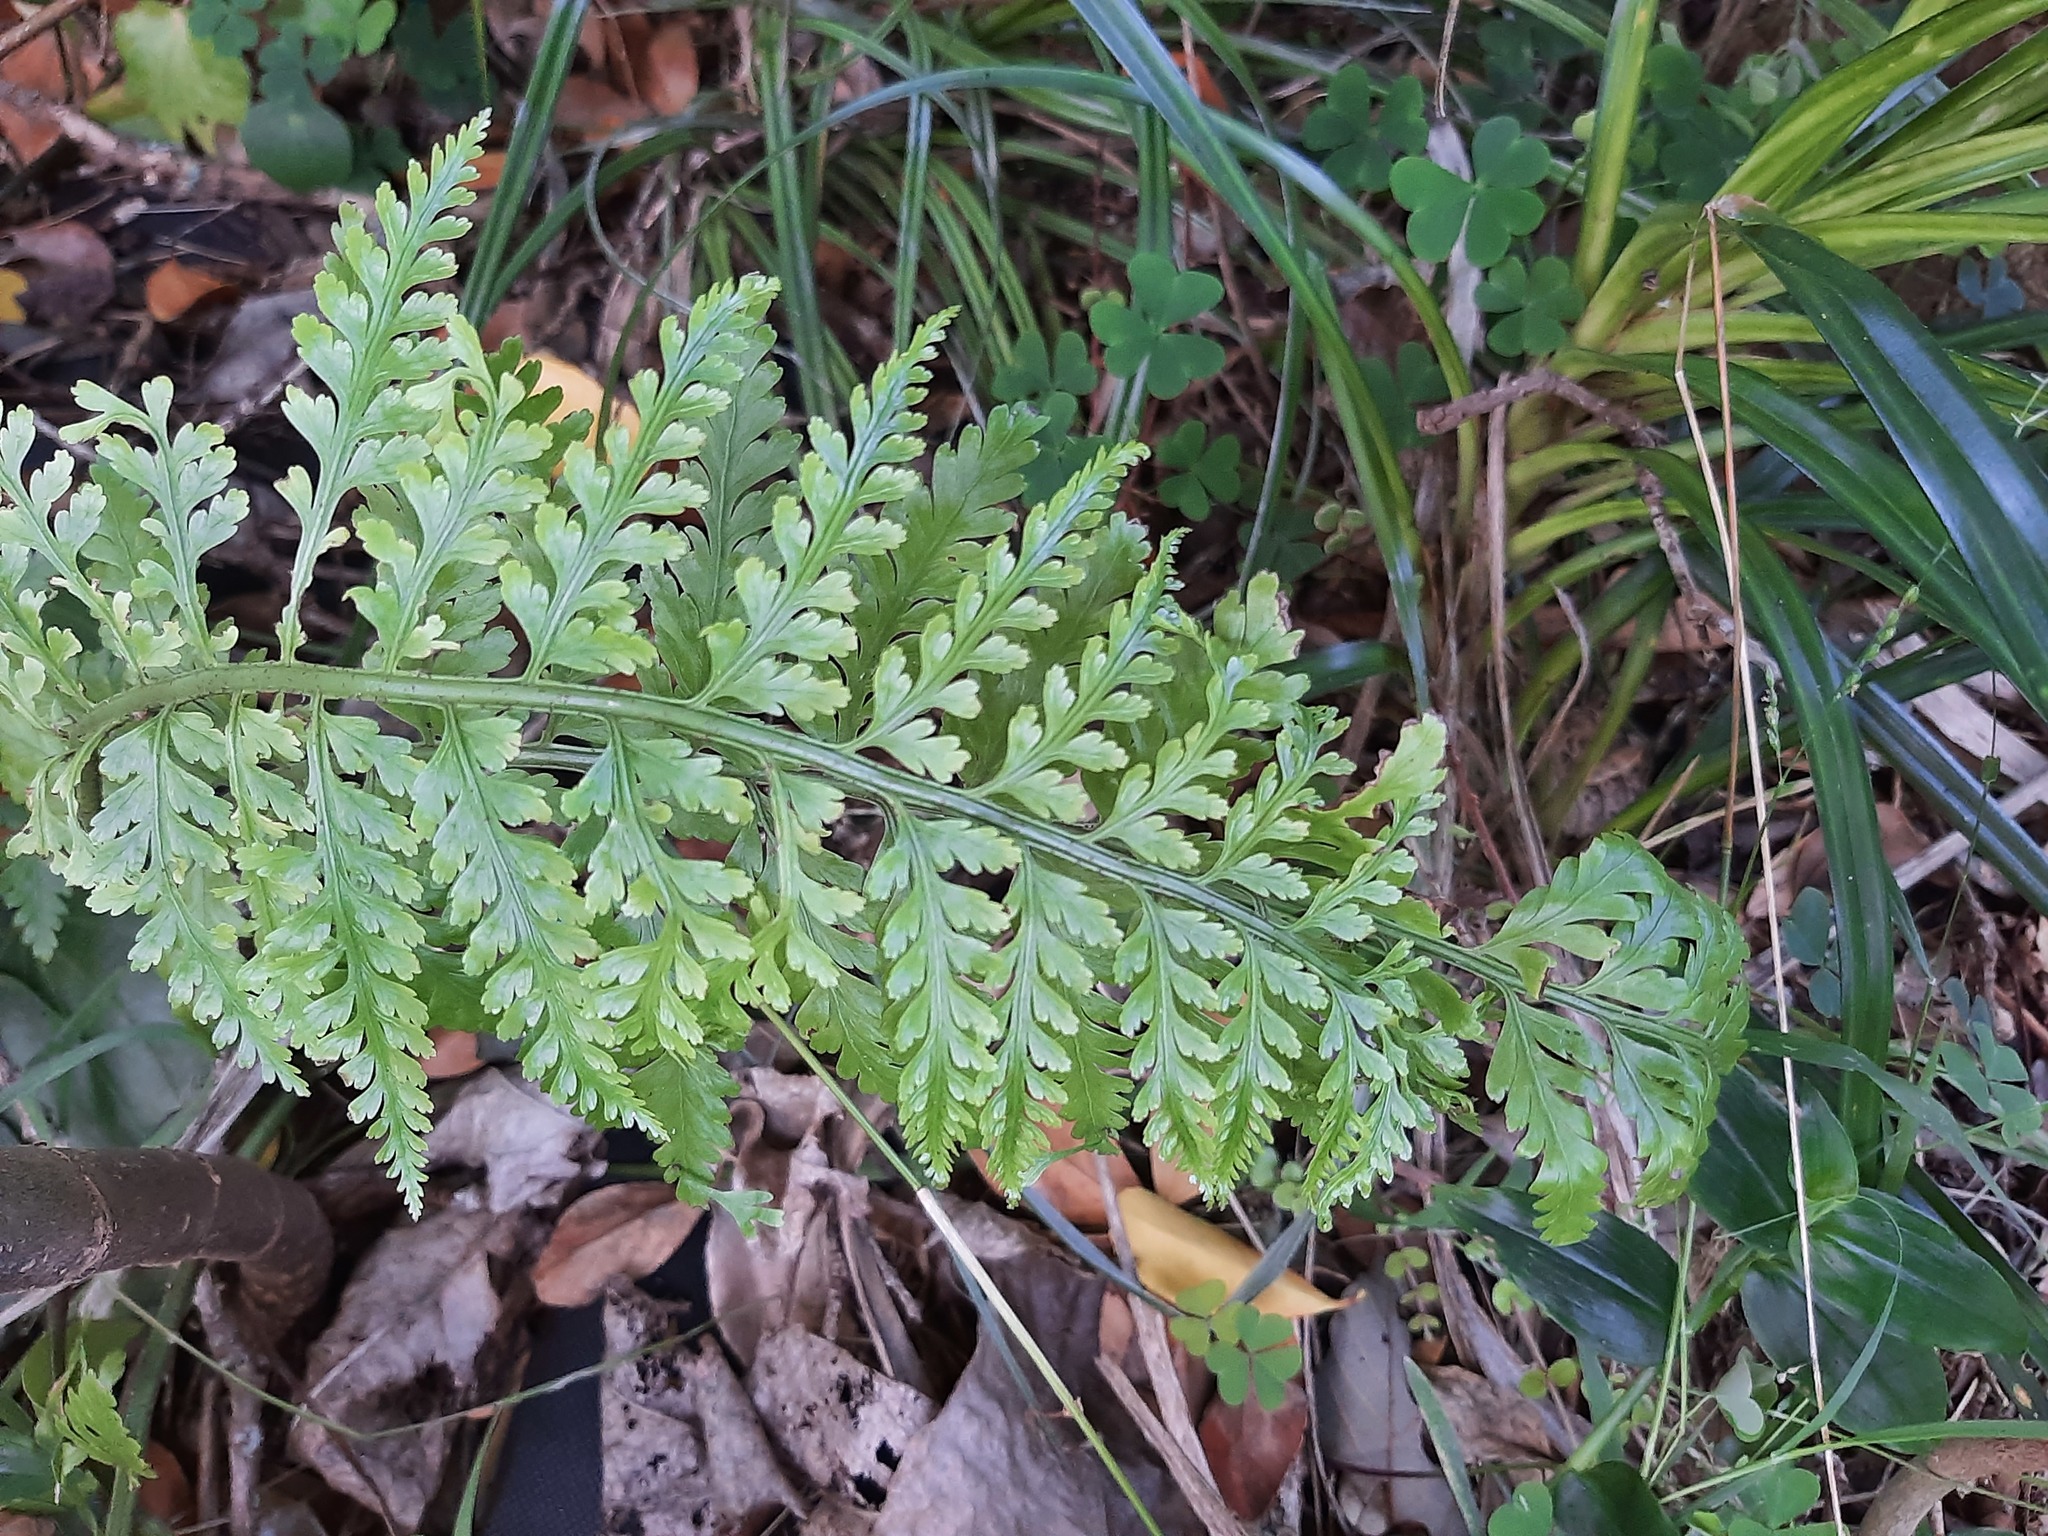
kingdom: Plantae
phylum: Tracheophyta
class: Polypodiopsida
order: Polypodiales
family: Aspleniaceae
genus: Asplenium
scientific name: Asplenium bulbiferum
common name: Mother fern
